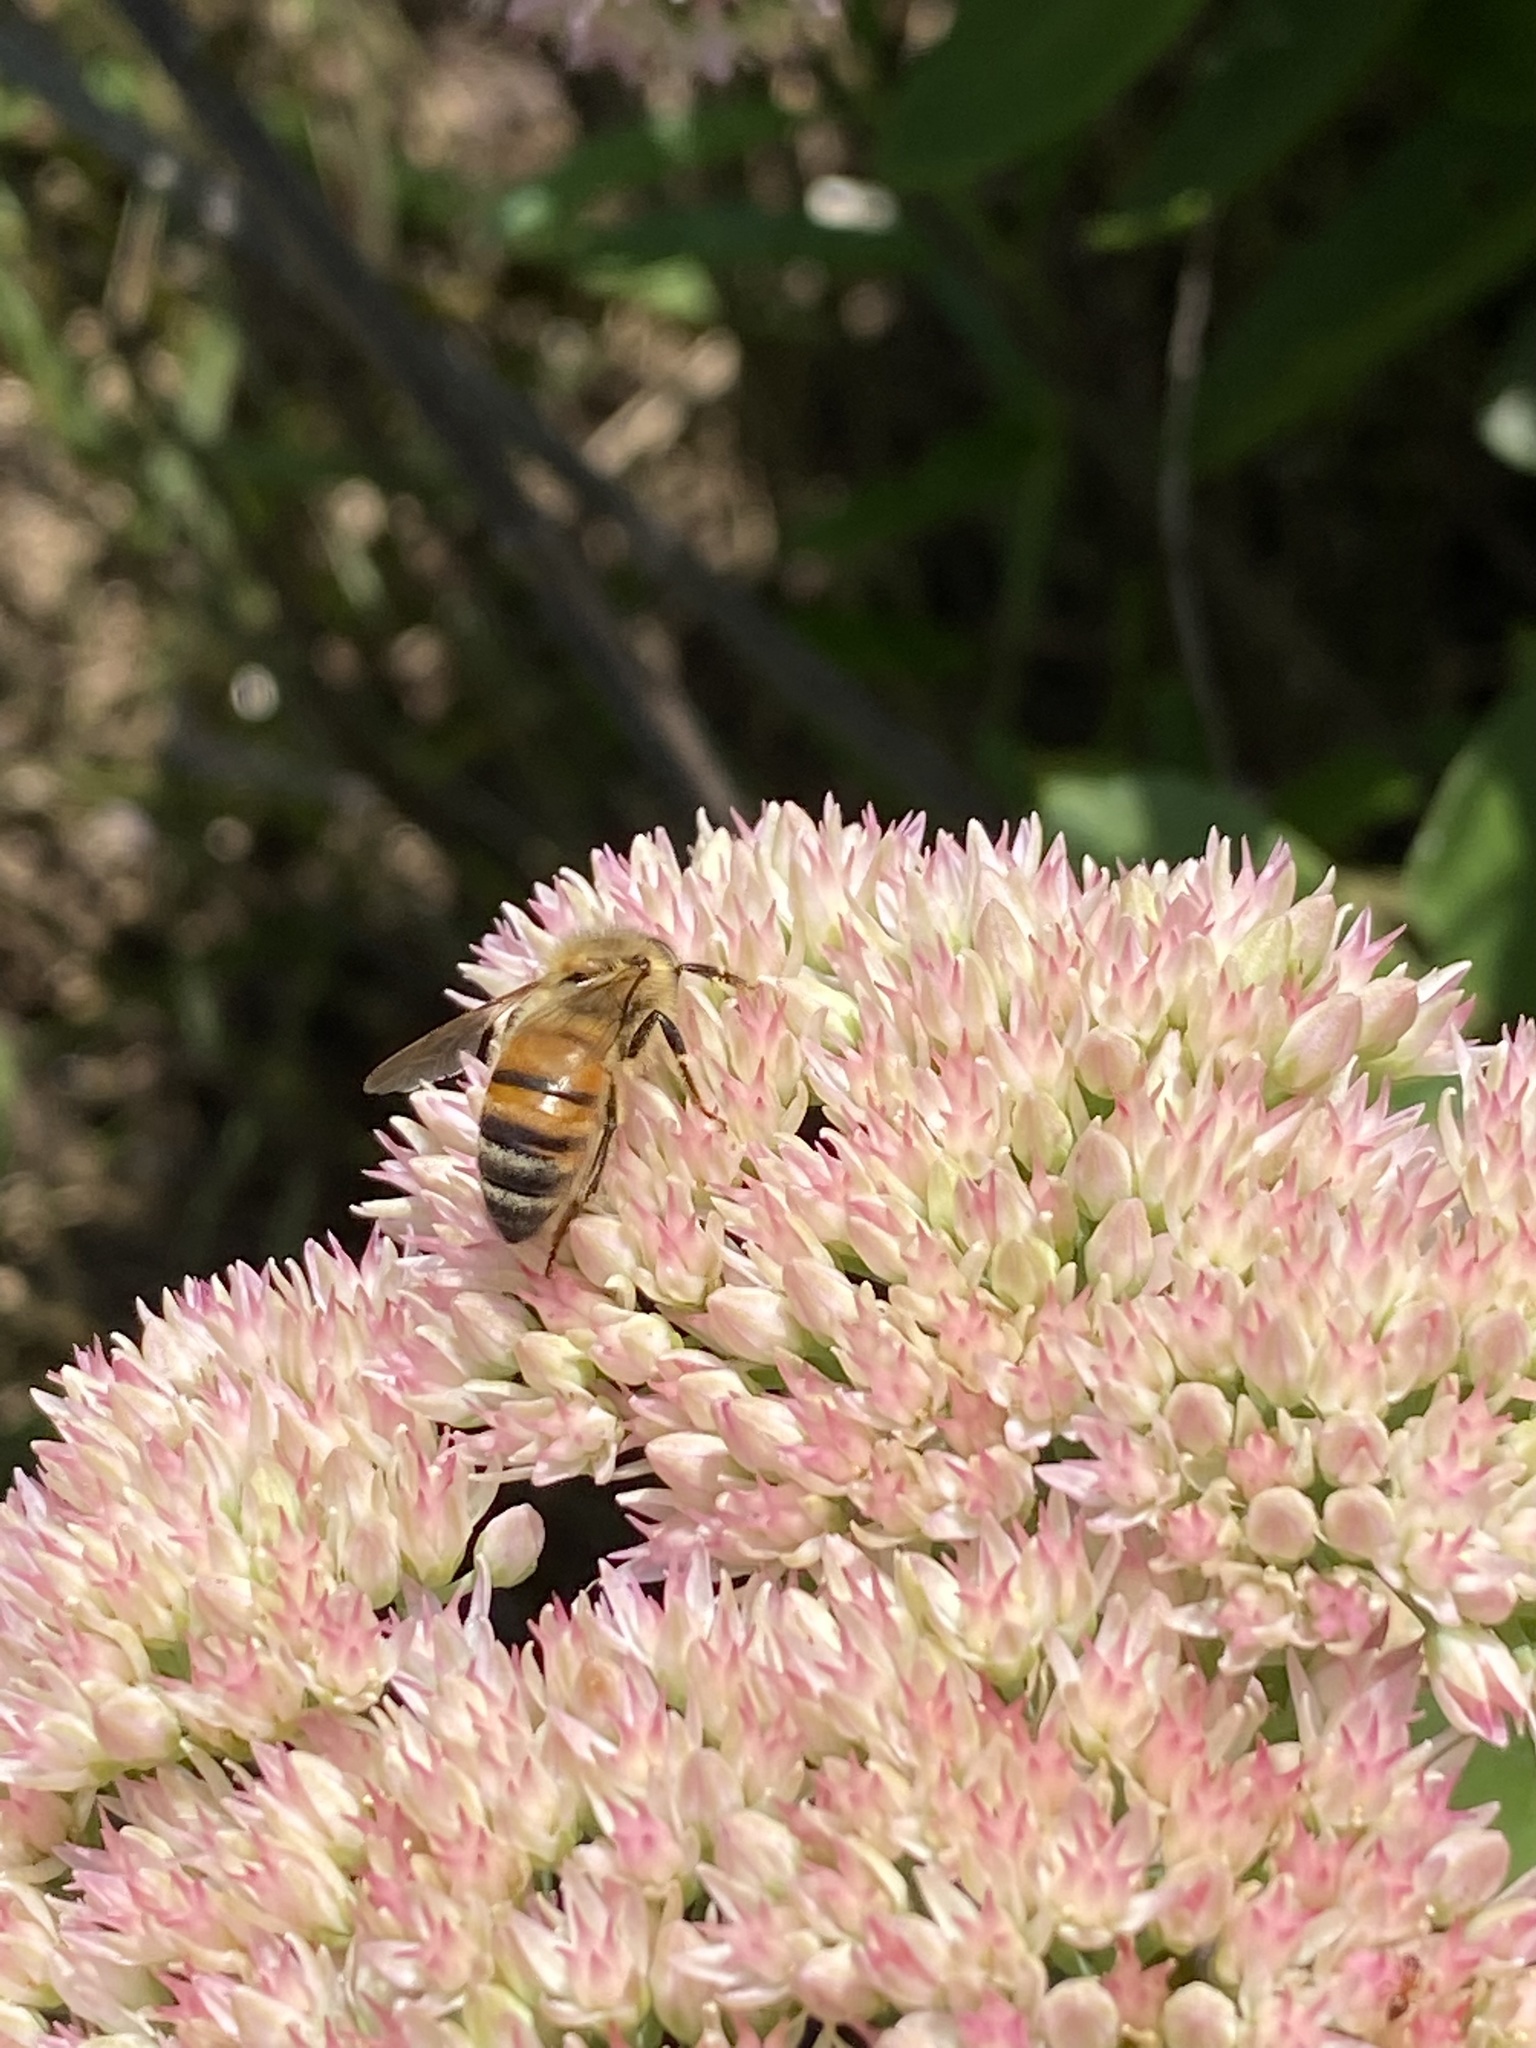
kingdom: Animalia
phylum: Arthropoda
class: Insecta
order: Hymenoptera
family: Apidae
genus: Apis
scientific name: Apis mellifera
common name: Honey bee
